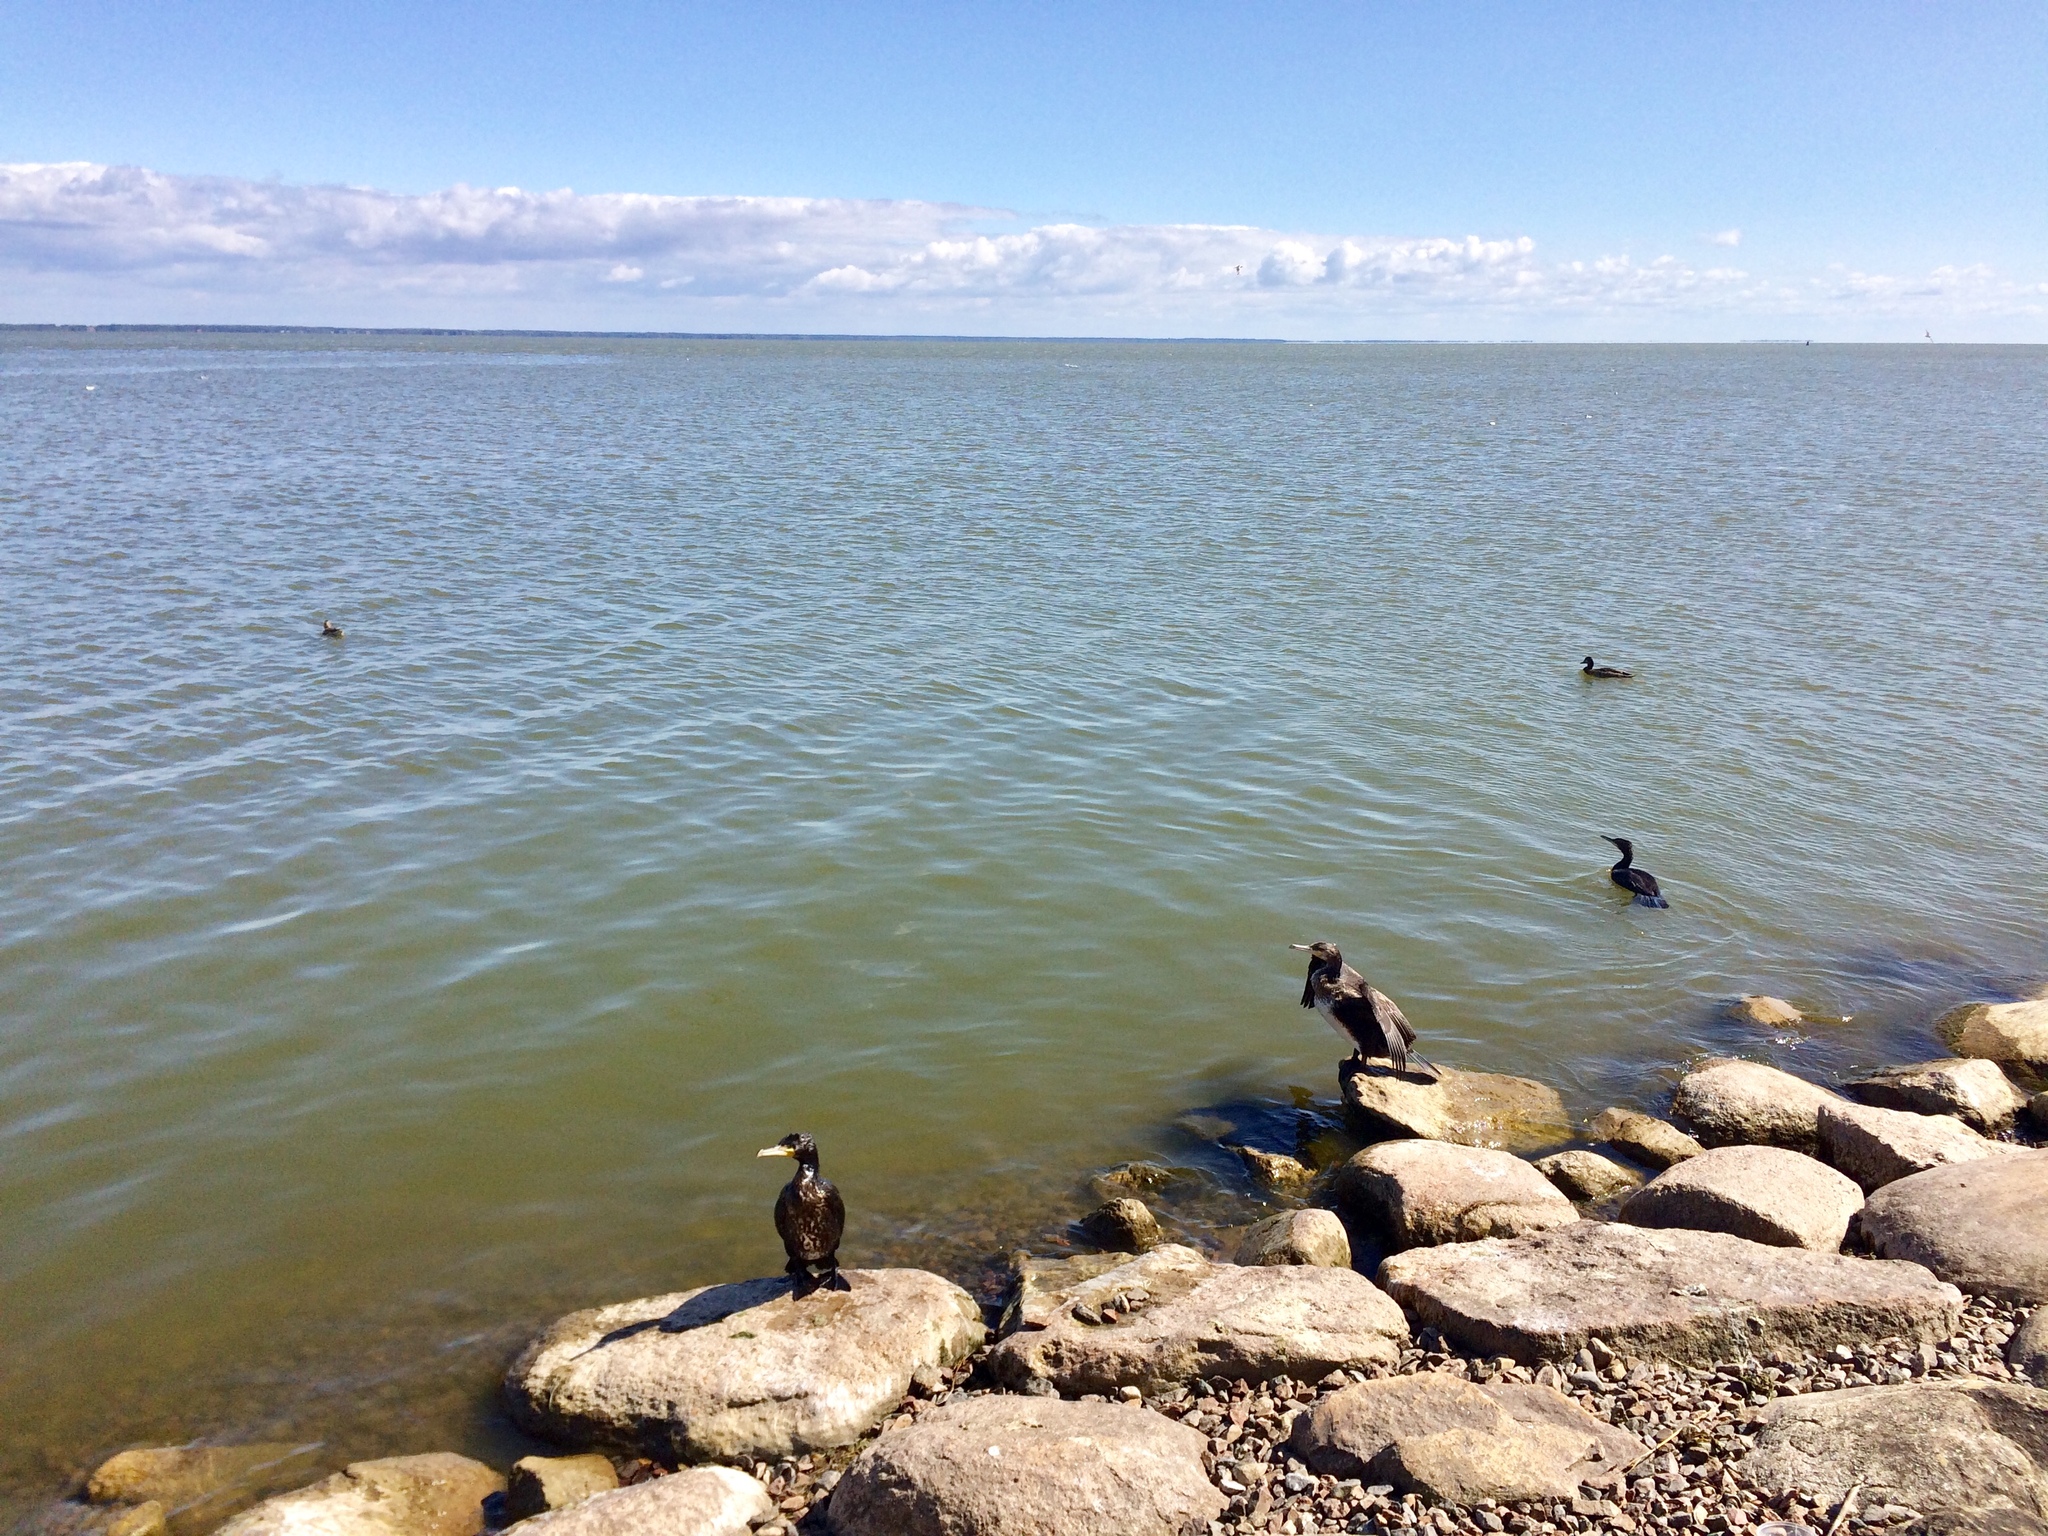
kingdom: Animalia
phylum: Chordata
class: Aves
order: Suliformes
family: Phalacrocoracidae
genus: Phalacrocorax
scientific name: Phalacrocorax carbo
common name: Great cormorant
